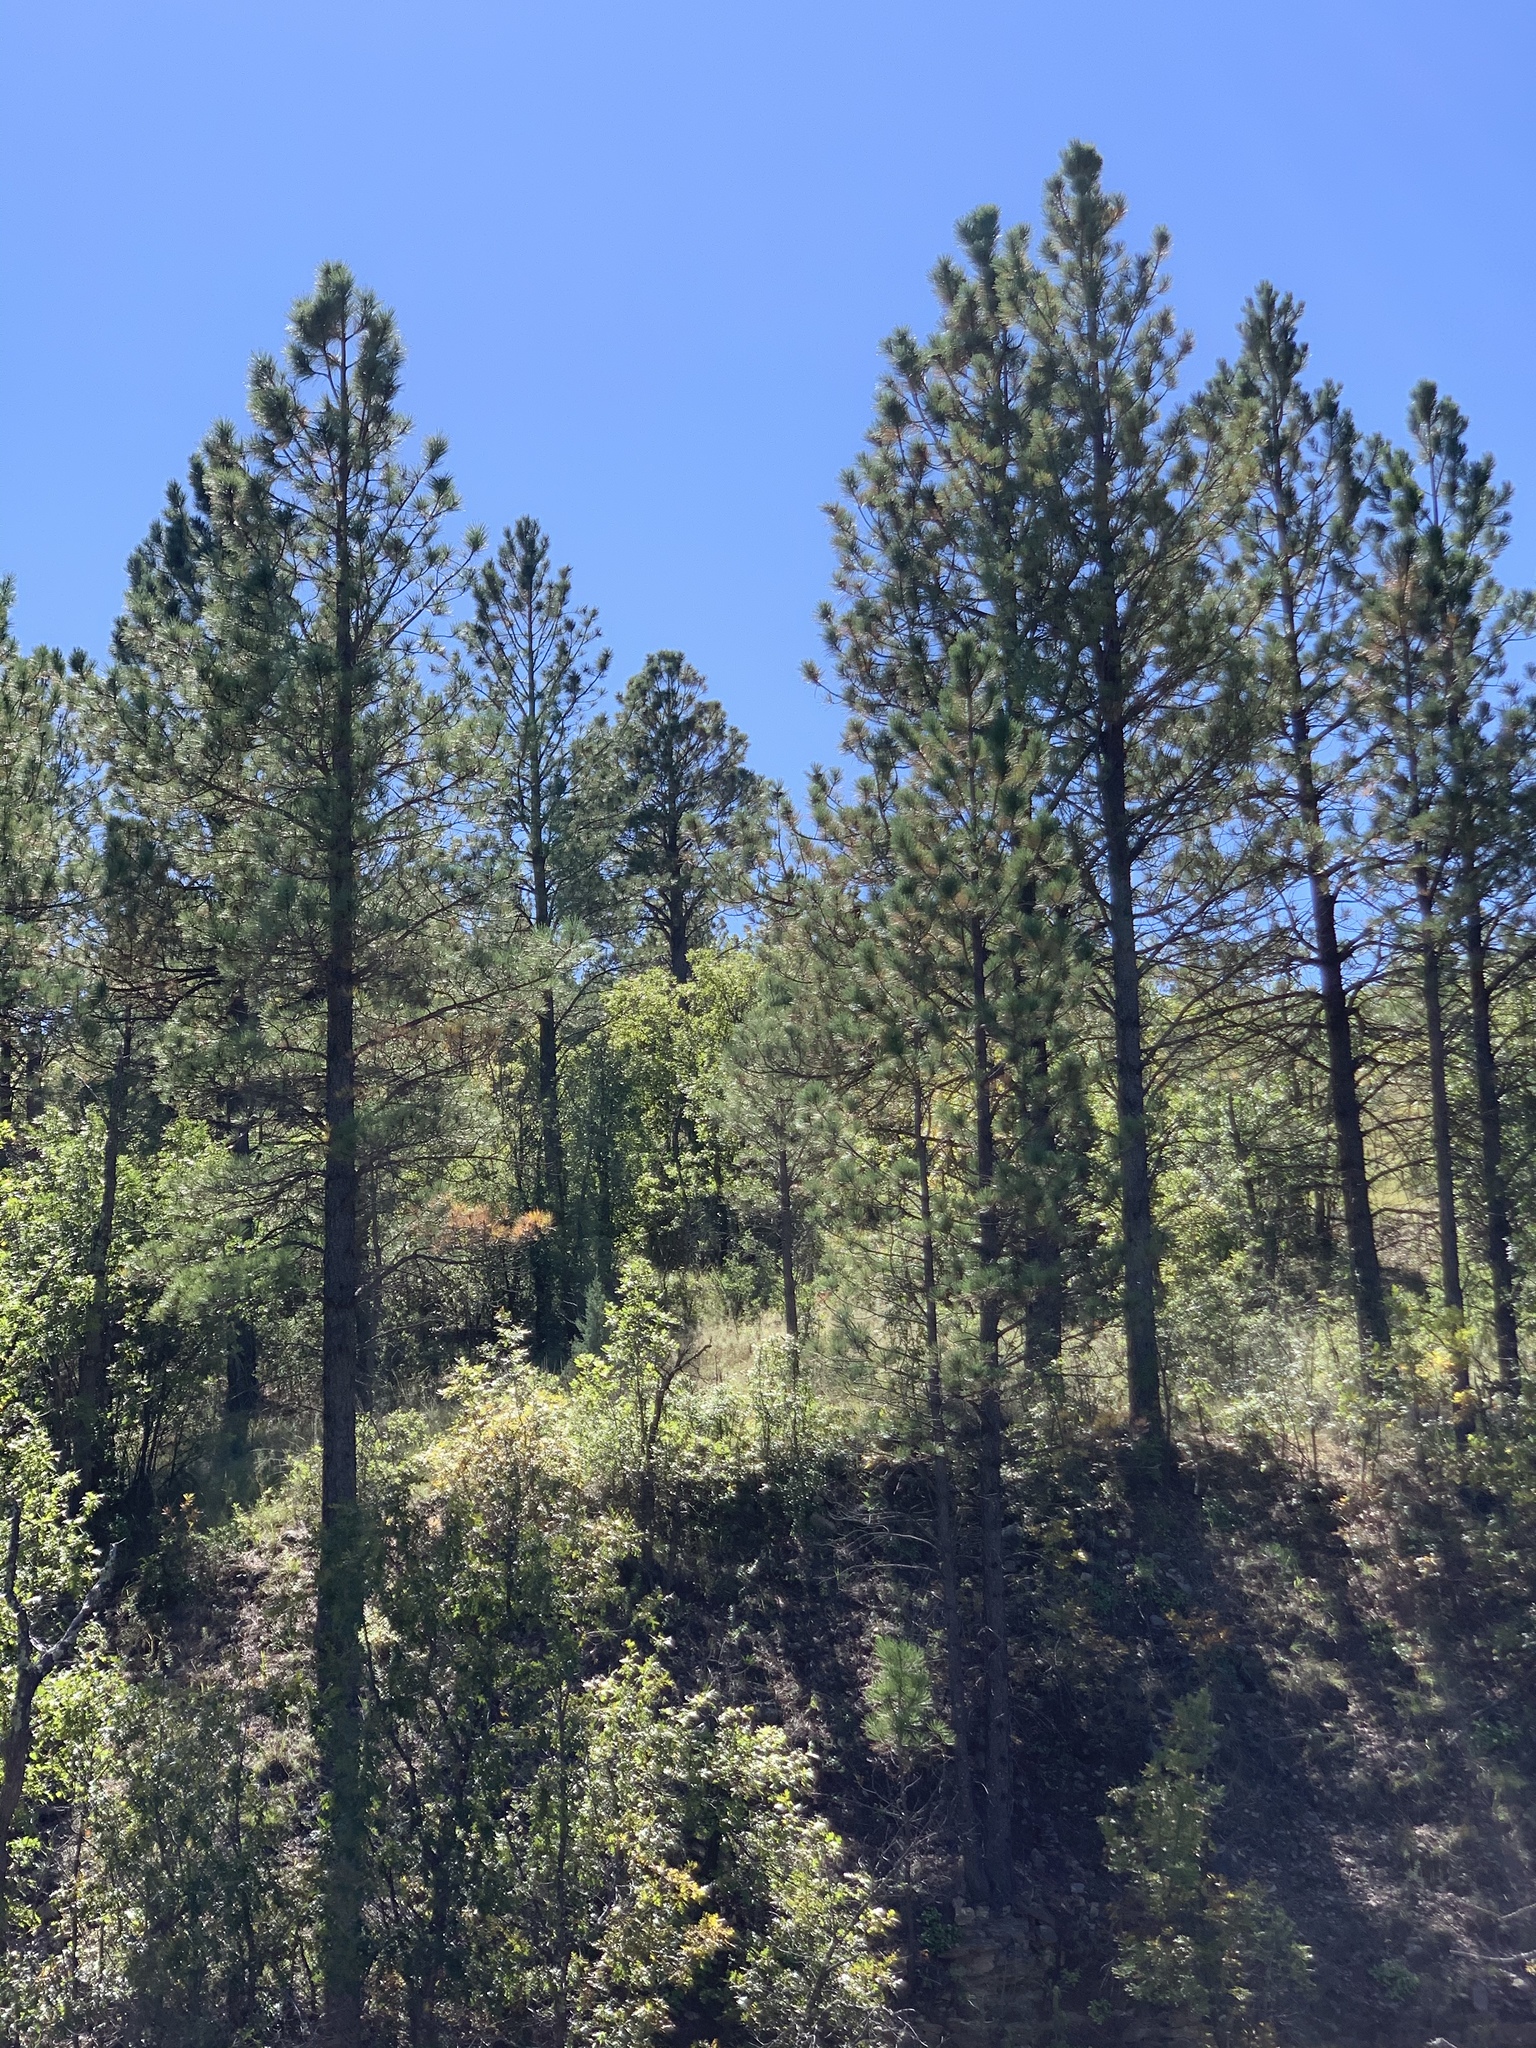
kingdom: Plantae
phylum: Tracheophyta
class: Pinopsida
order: Pinales
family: Pinaceae
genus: Pinus
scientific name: Pinus ponderosa
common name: Western yellow-pine
